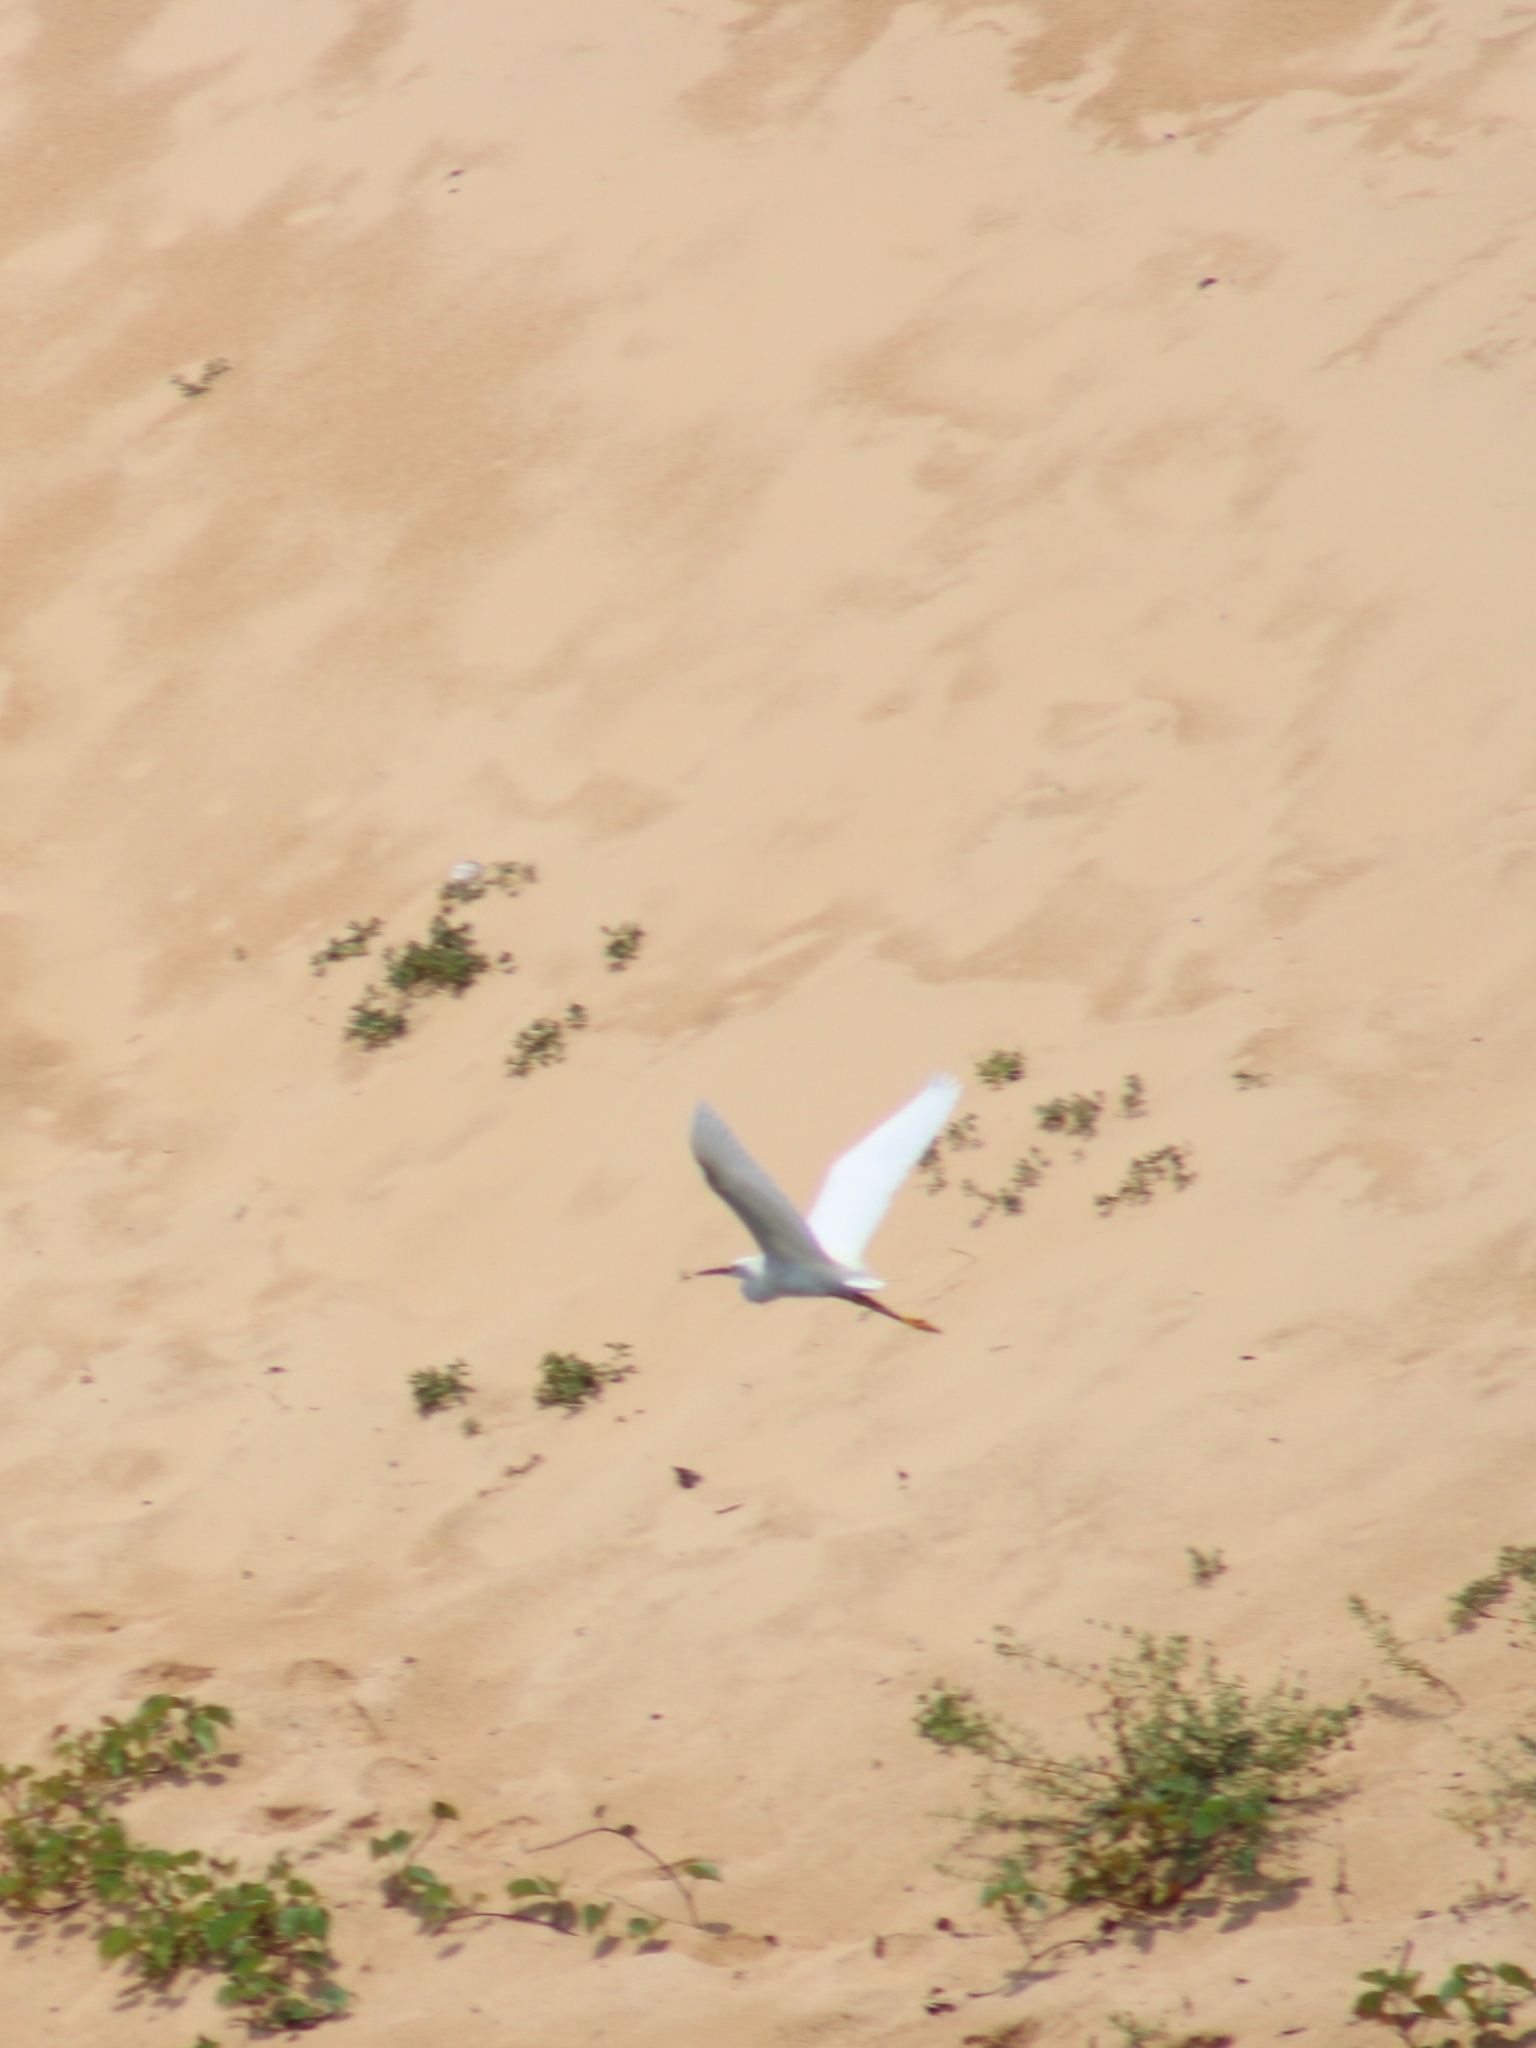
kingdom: Animalia
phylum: Chordata
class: Aves
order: Pelecaniformes
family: Ardeidae
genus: Egretta
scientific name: Egretta thula
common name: Snowy egret
